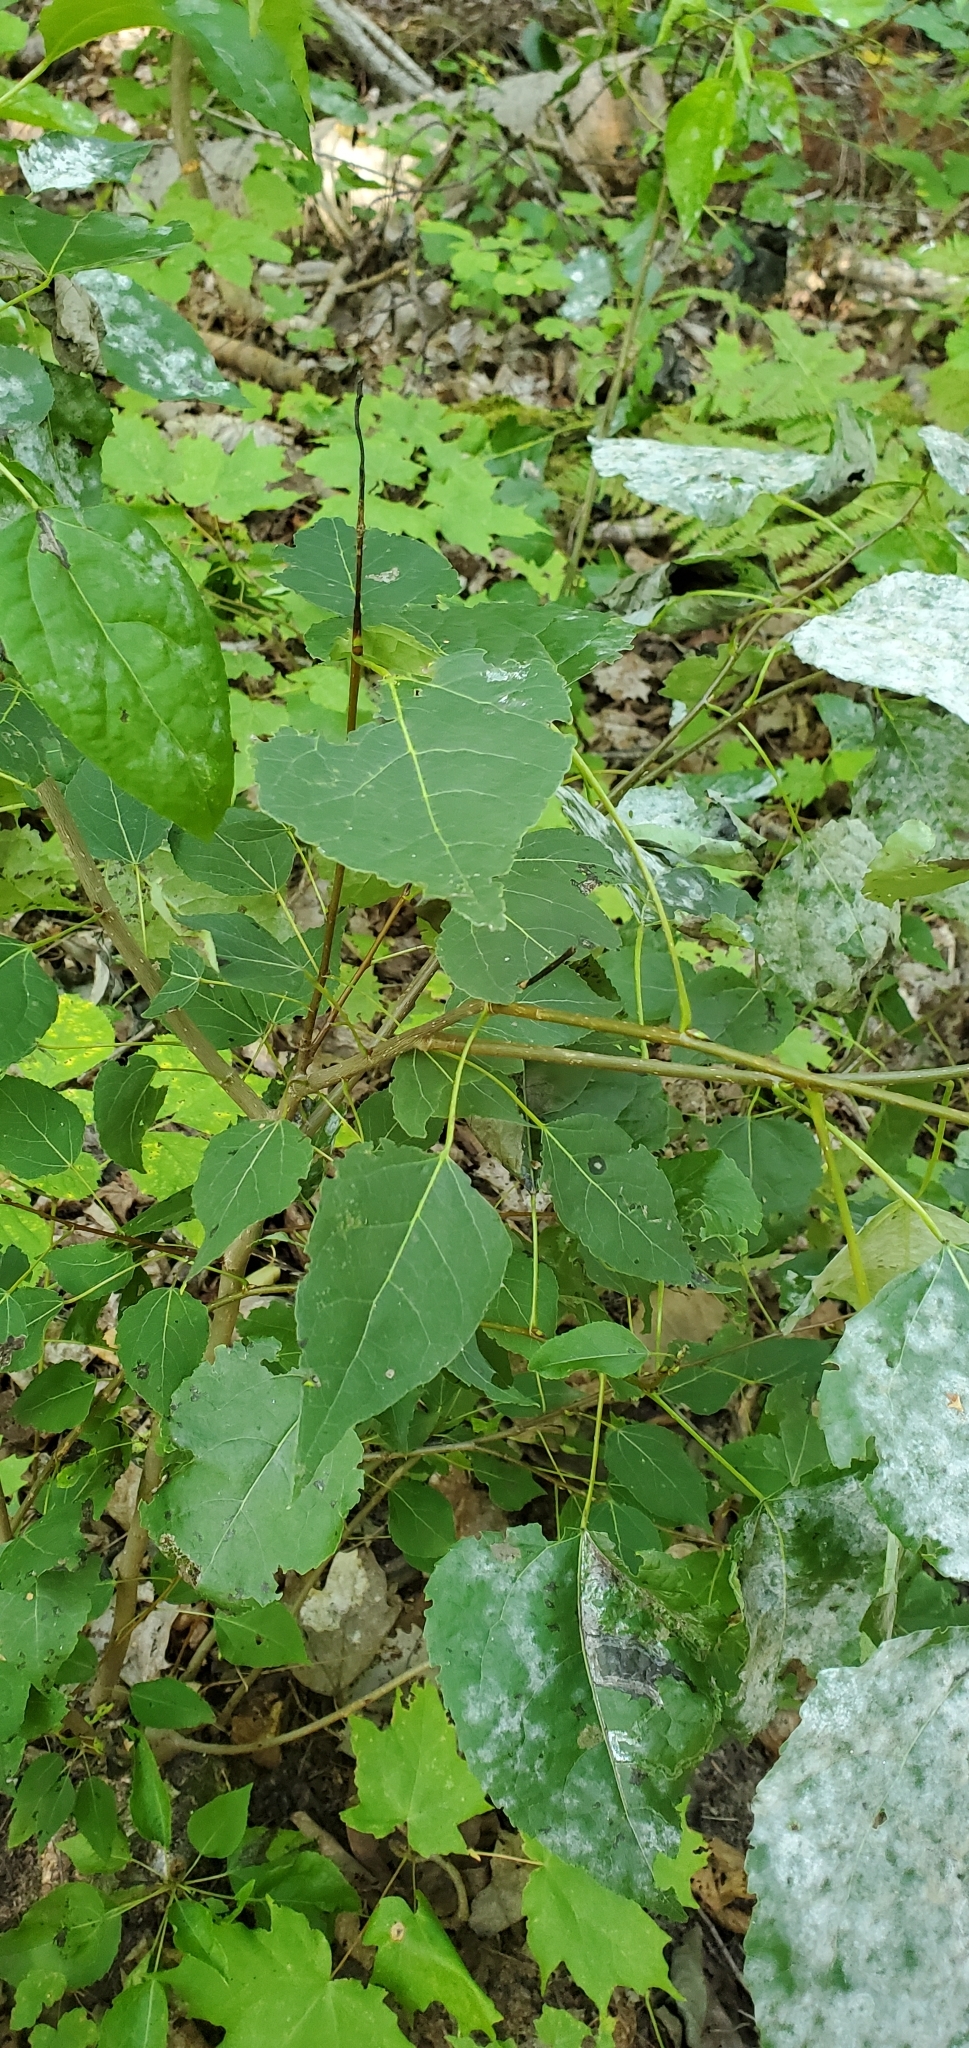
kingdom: Plantae
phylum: Tracheophyta
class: Magnoliopsida
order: Malpighiales
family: Salicaceae
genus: Populus
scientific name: Populus tremuloides
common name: Quaking aspen
